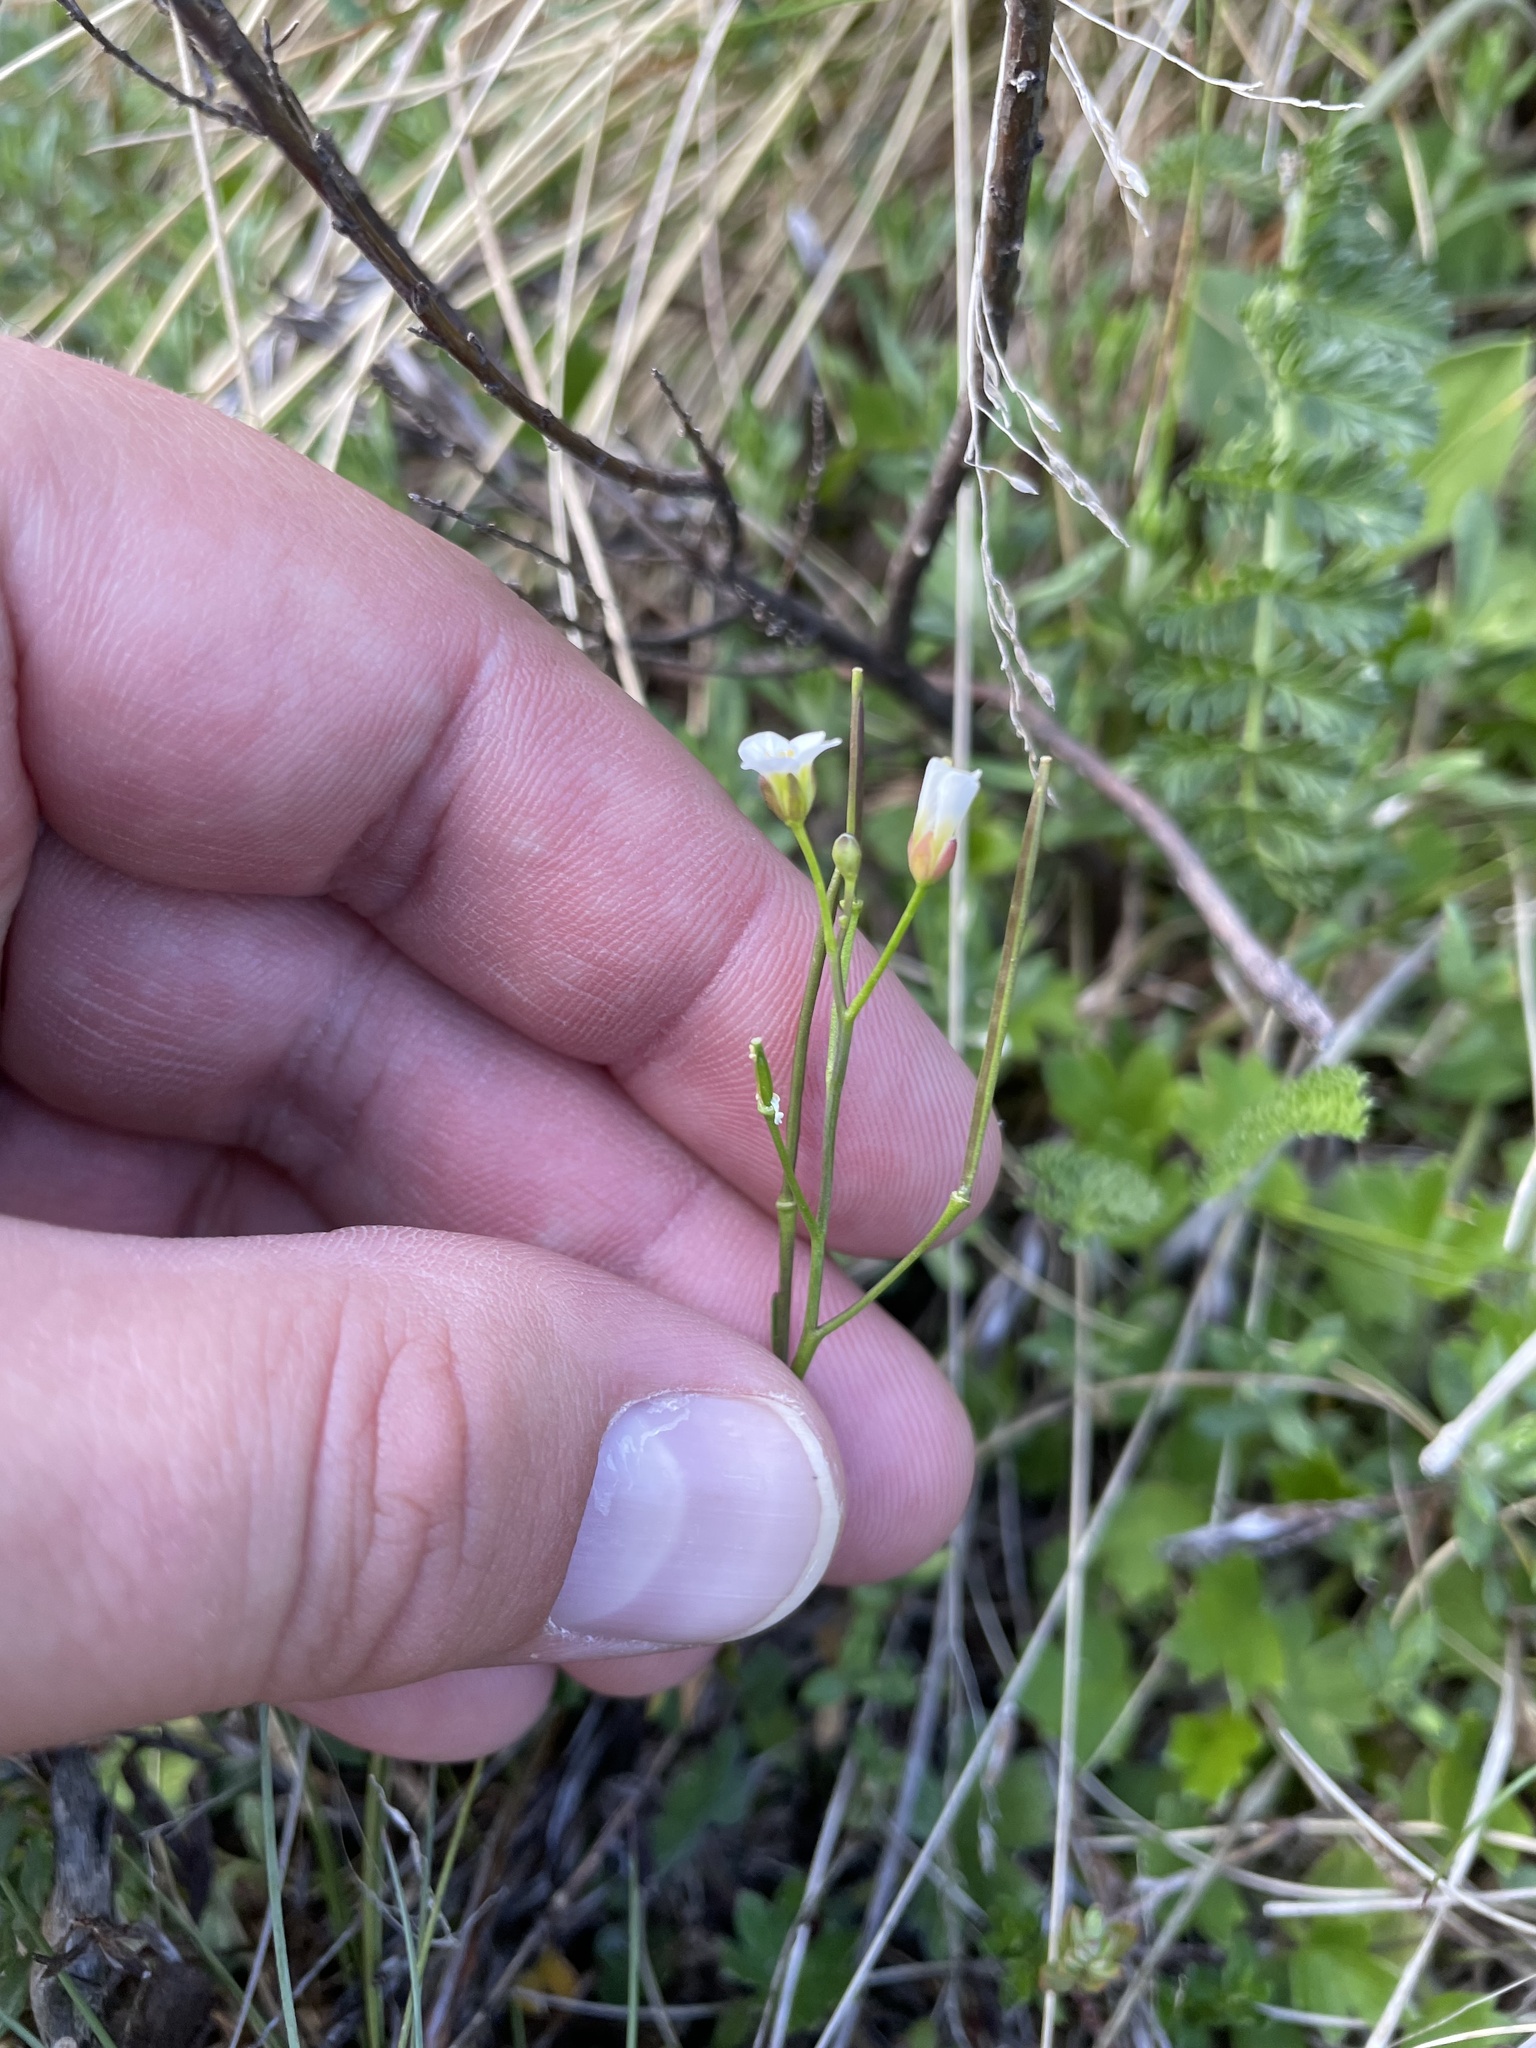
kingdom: Plantae
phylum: Tracheophyta
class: Magnoliopsida
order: Brassicales
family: Brassicaceae
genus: Cardamine
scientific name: Cardamine hirsuta
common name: Hairy bittercress
